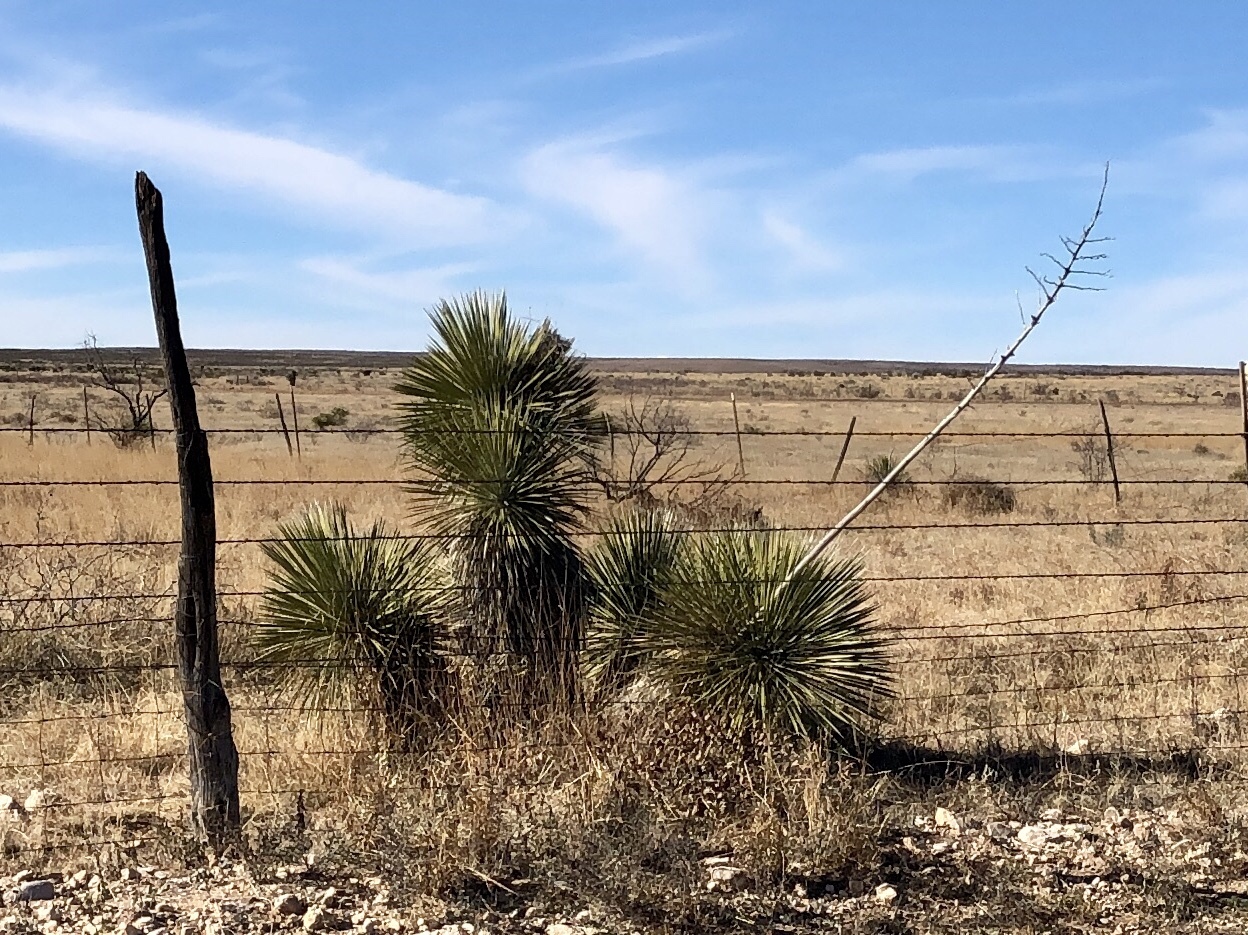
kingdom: Plantae
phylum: Tracheophyta
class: Liliopsida
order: Asparagales
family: Asparagaceae
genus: Yucca
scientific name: Yucca elata
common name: Palmella
